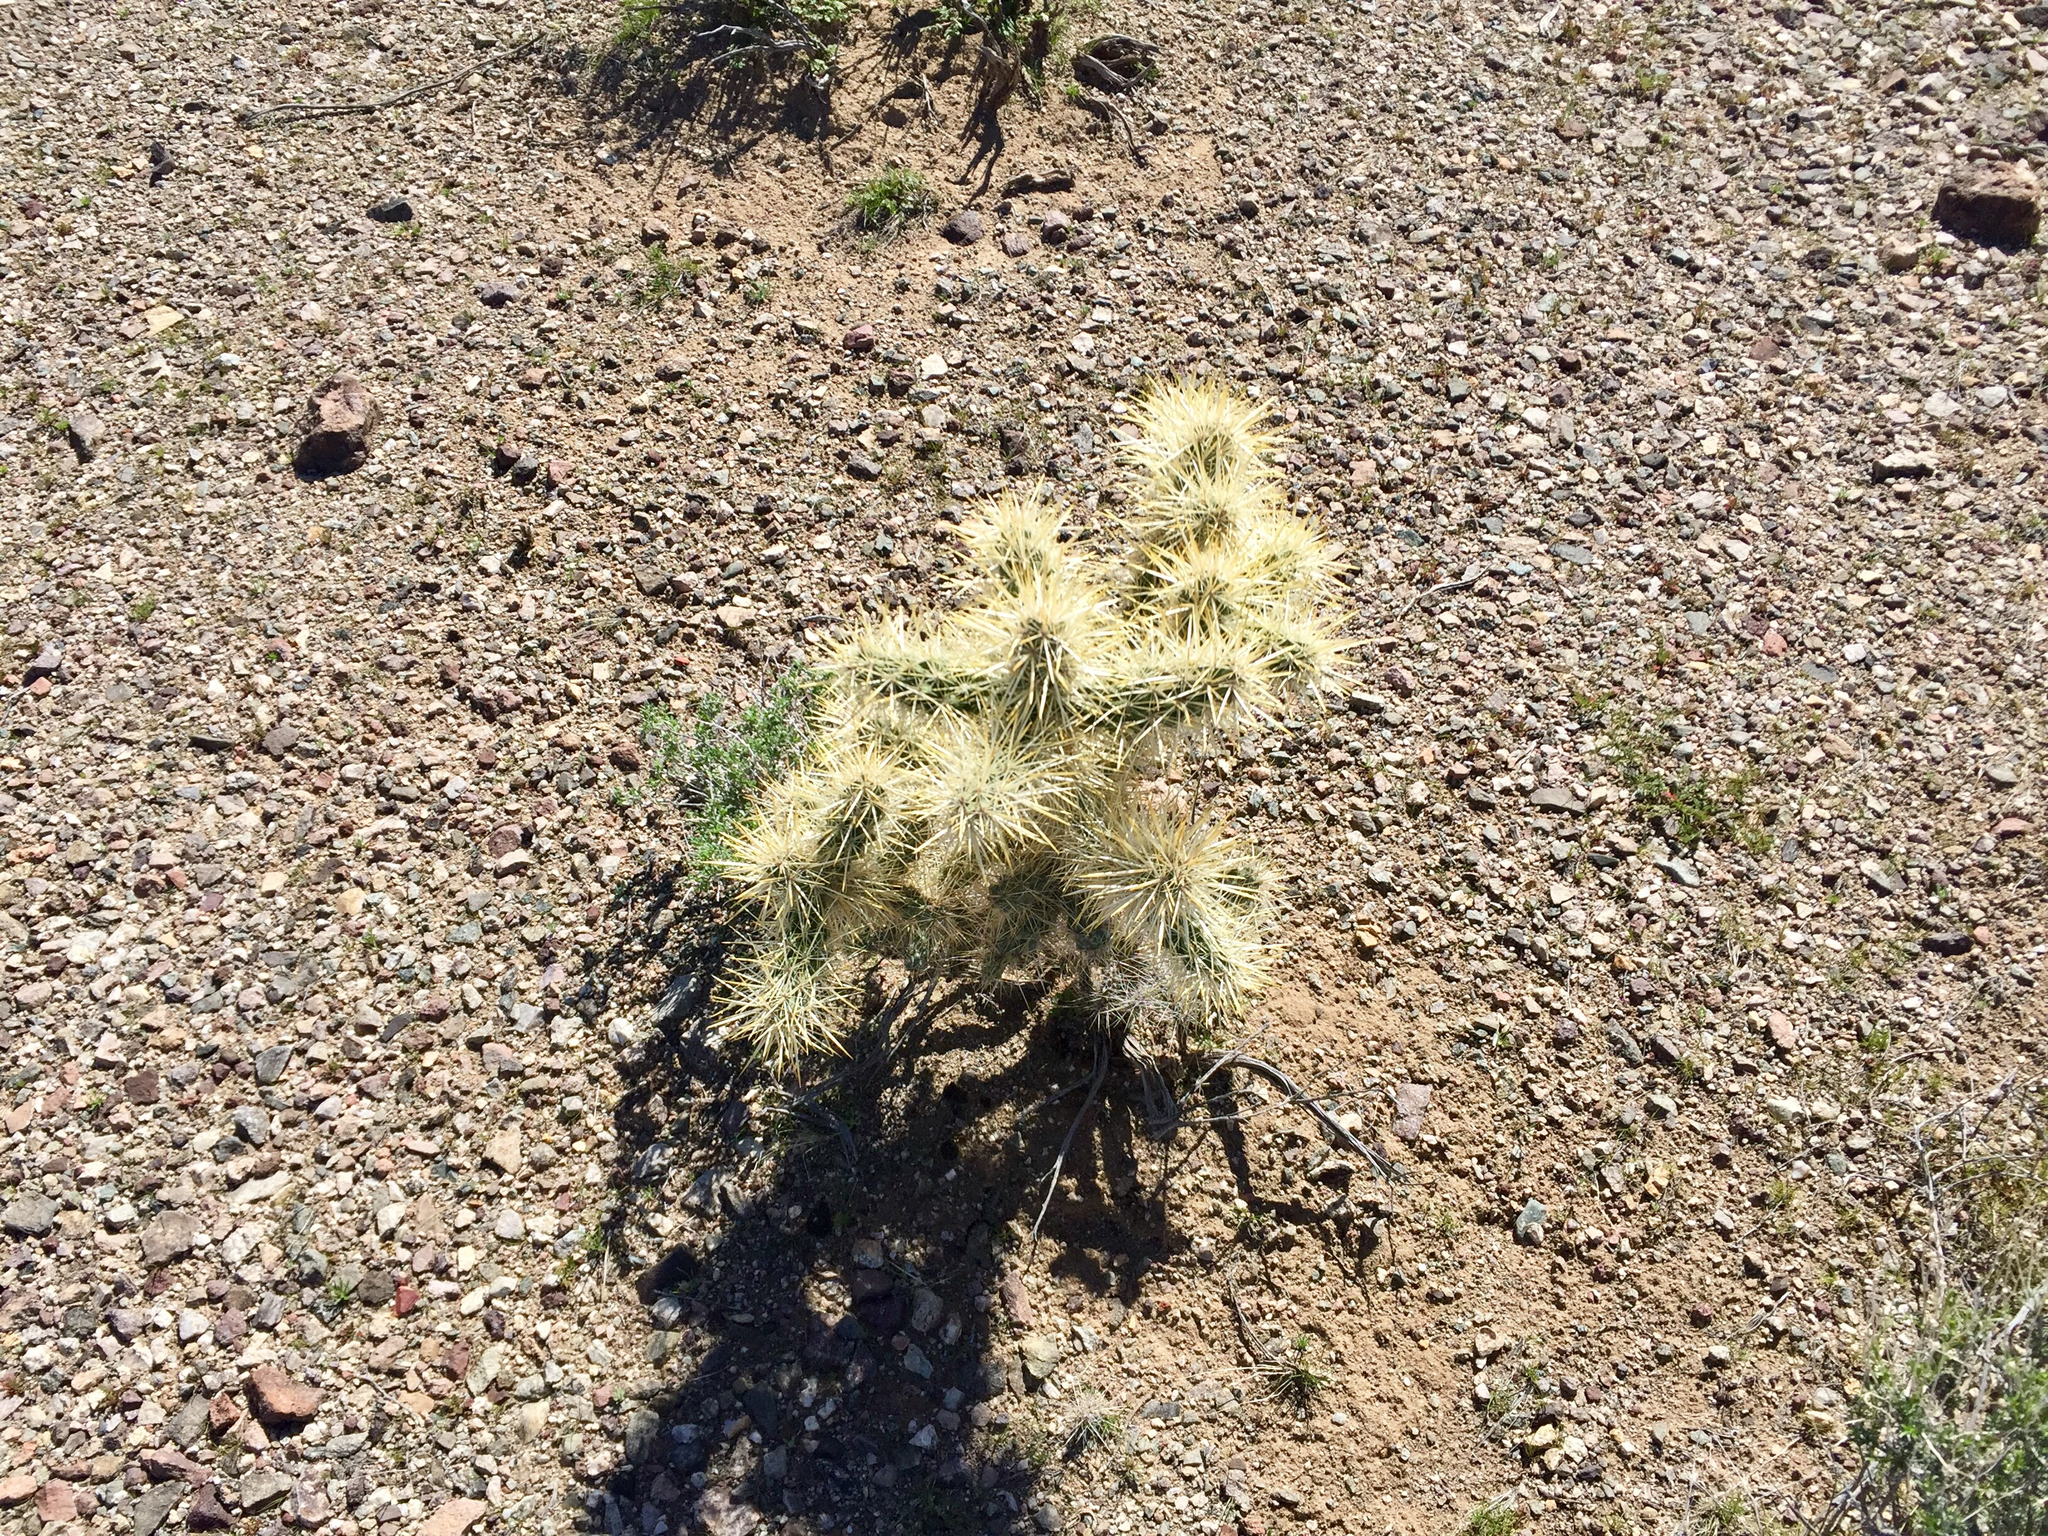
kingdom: Plantae
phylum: Tracheophyta
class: Magnoliopsida
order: Caryophyllales
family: Cactaceae
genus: Cylindropuntia
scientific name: Cylindropuntia echinocarpa
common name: Ground cholla
